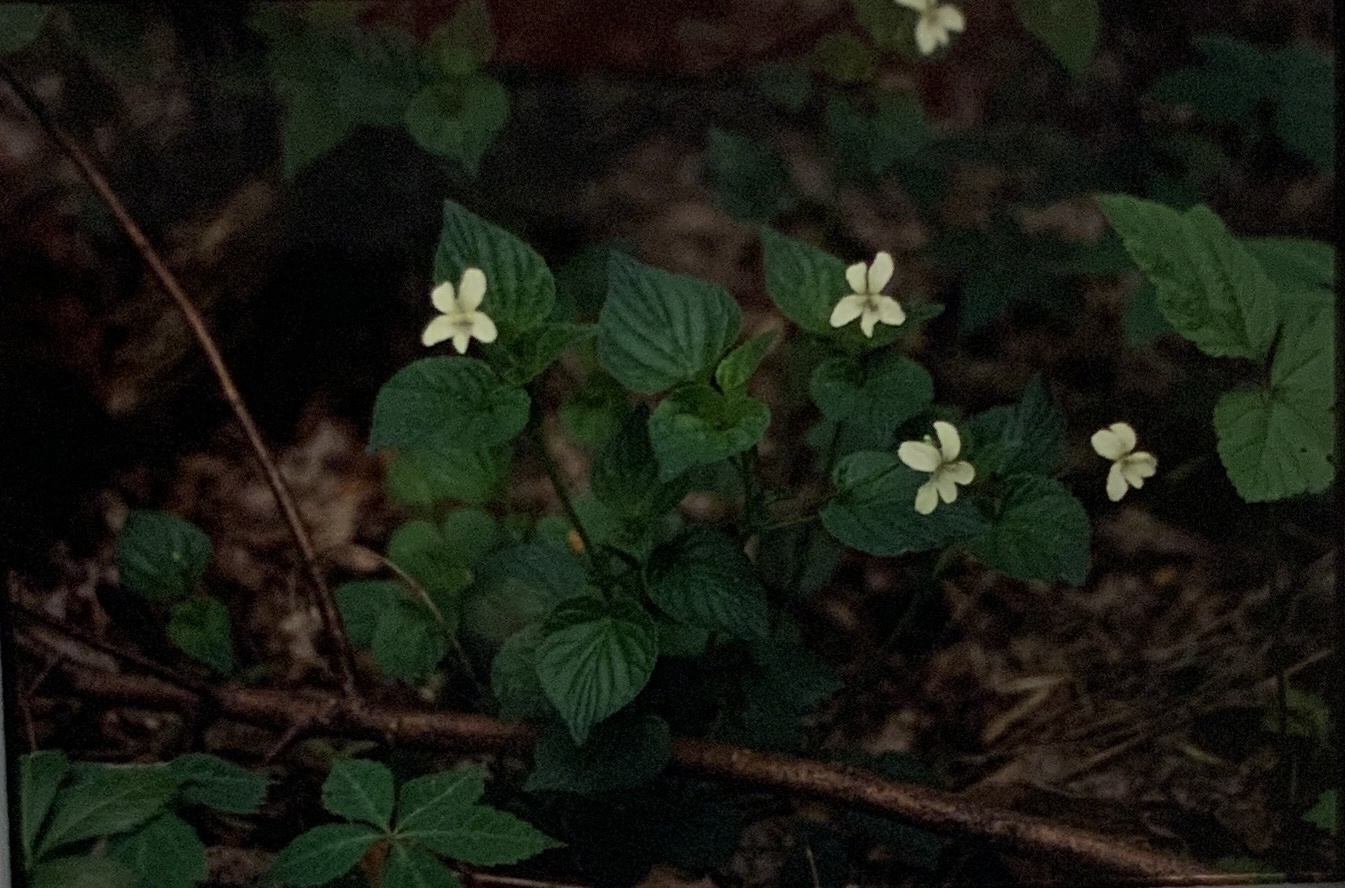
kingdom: Plantae
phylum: Tracheophyta
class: Magnoliopsida
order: Malpighiales
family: Violaceae
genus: Viola
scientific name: Viola striata
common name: Cream violet
